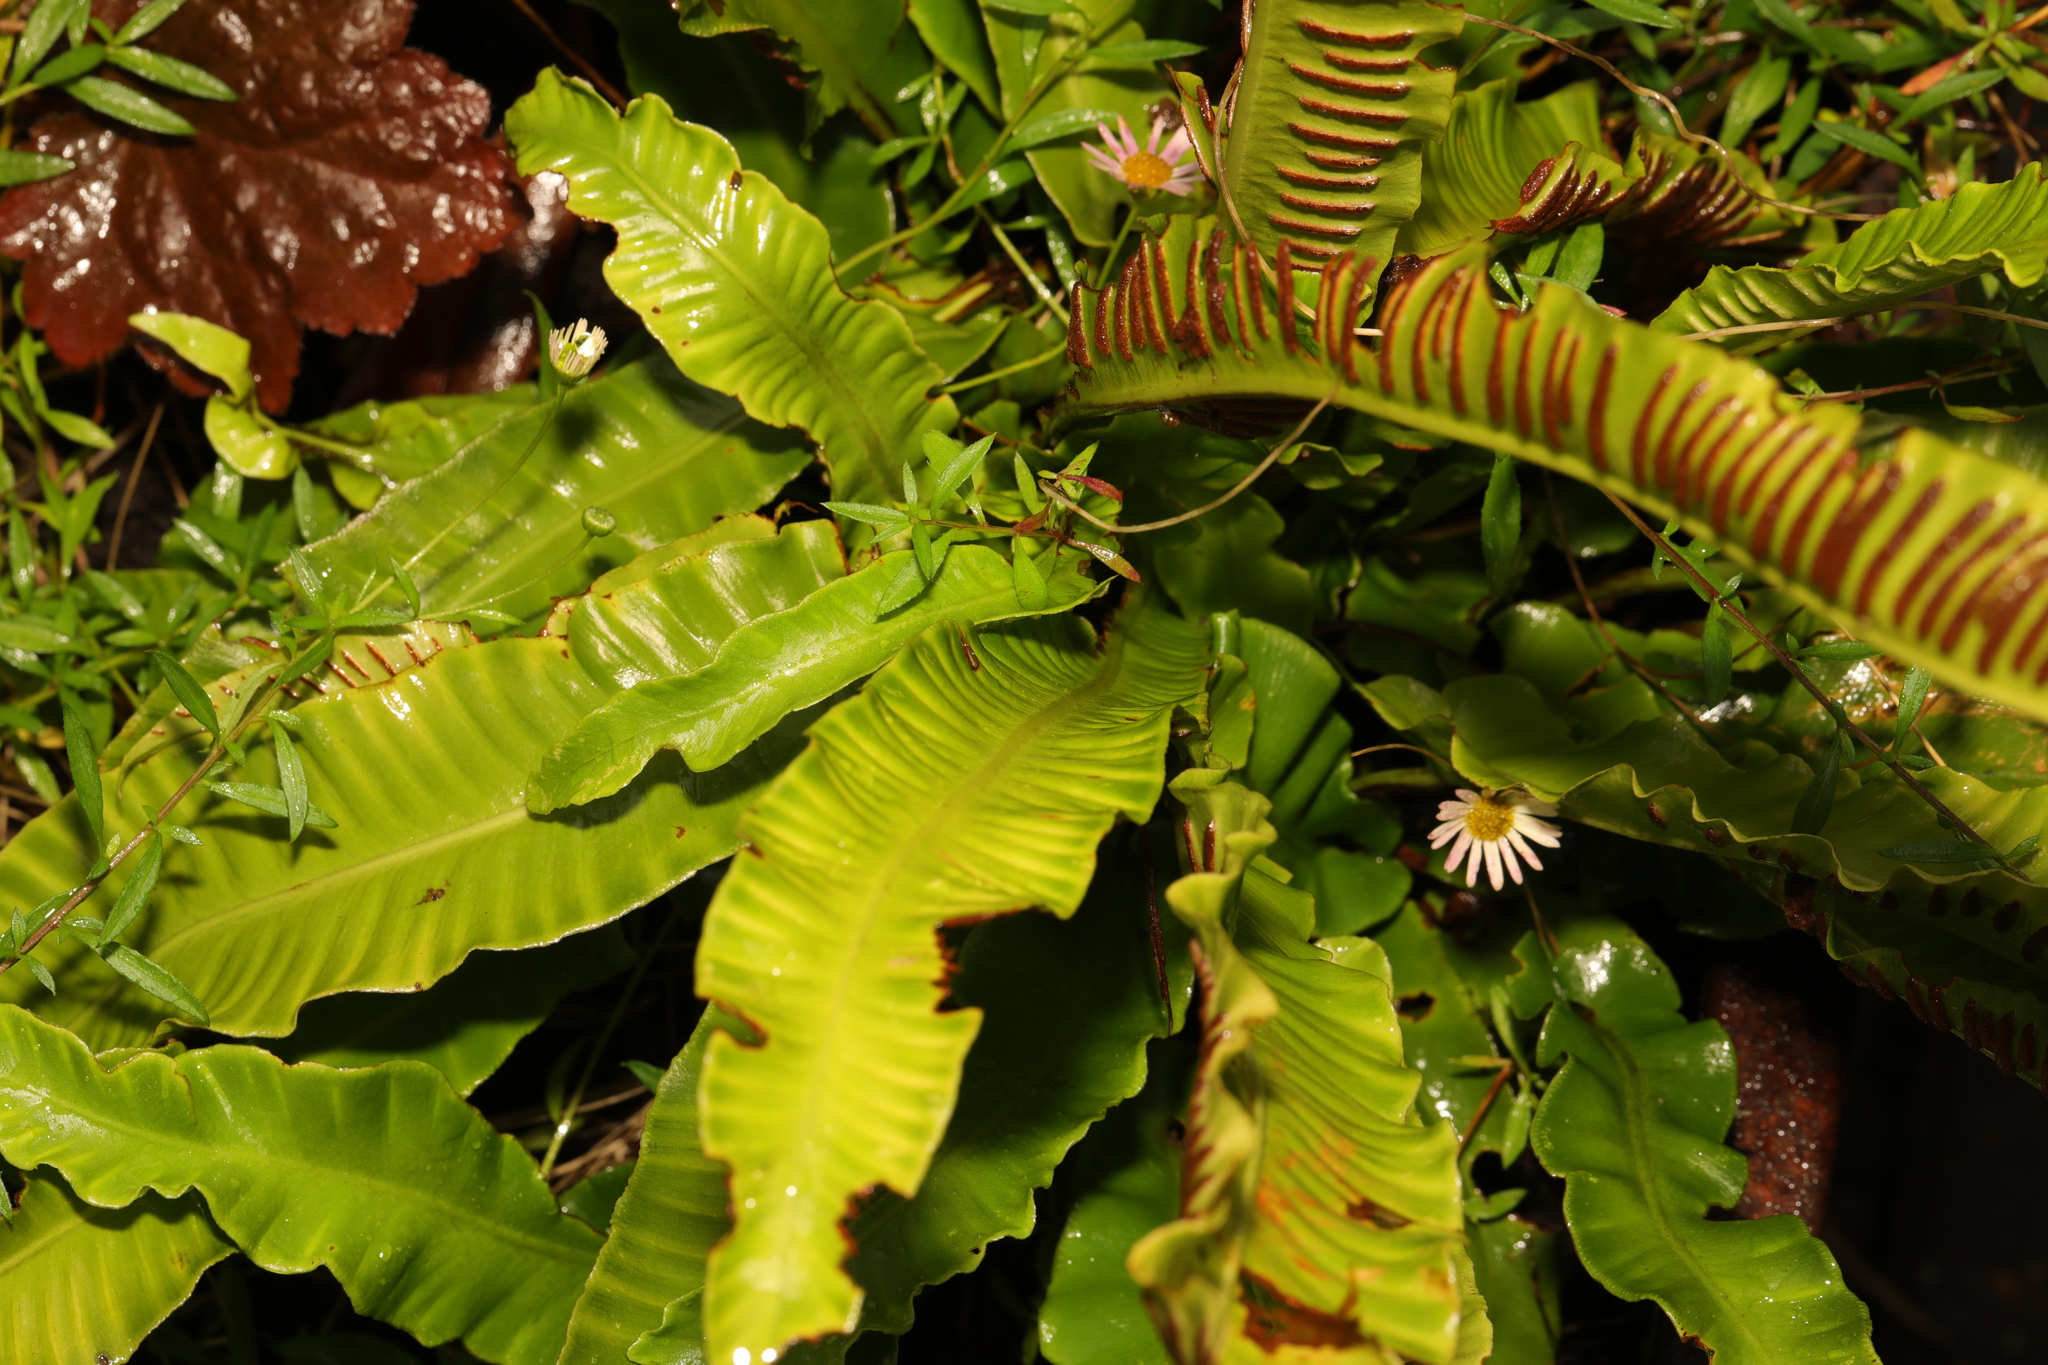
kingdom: Plantae
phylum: Tracheophyta
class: Polypodiopsida
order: Polypodiales
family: Aspleniaceae
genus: Asplenium
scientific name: Asplenium scolopendrium
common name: Hart's-tongue fern
